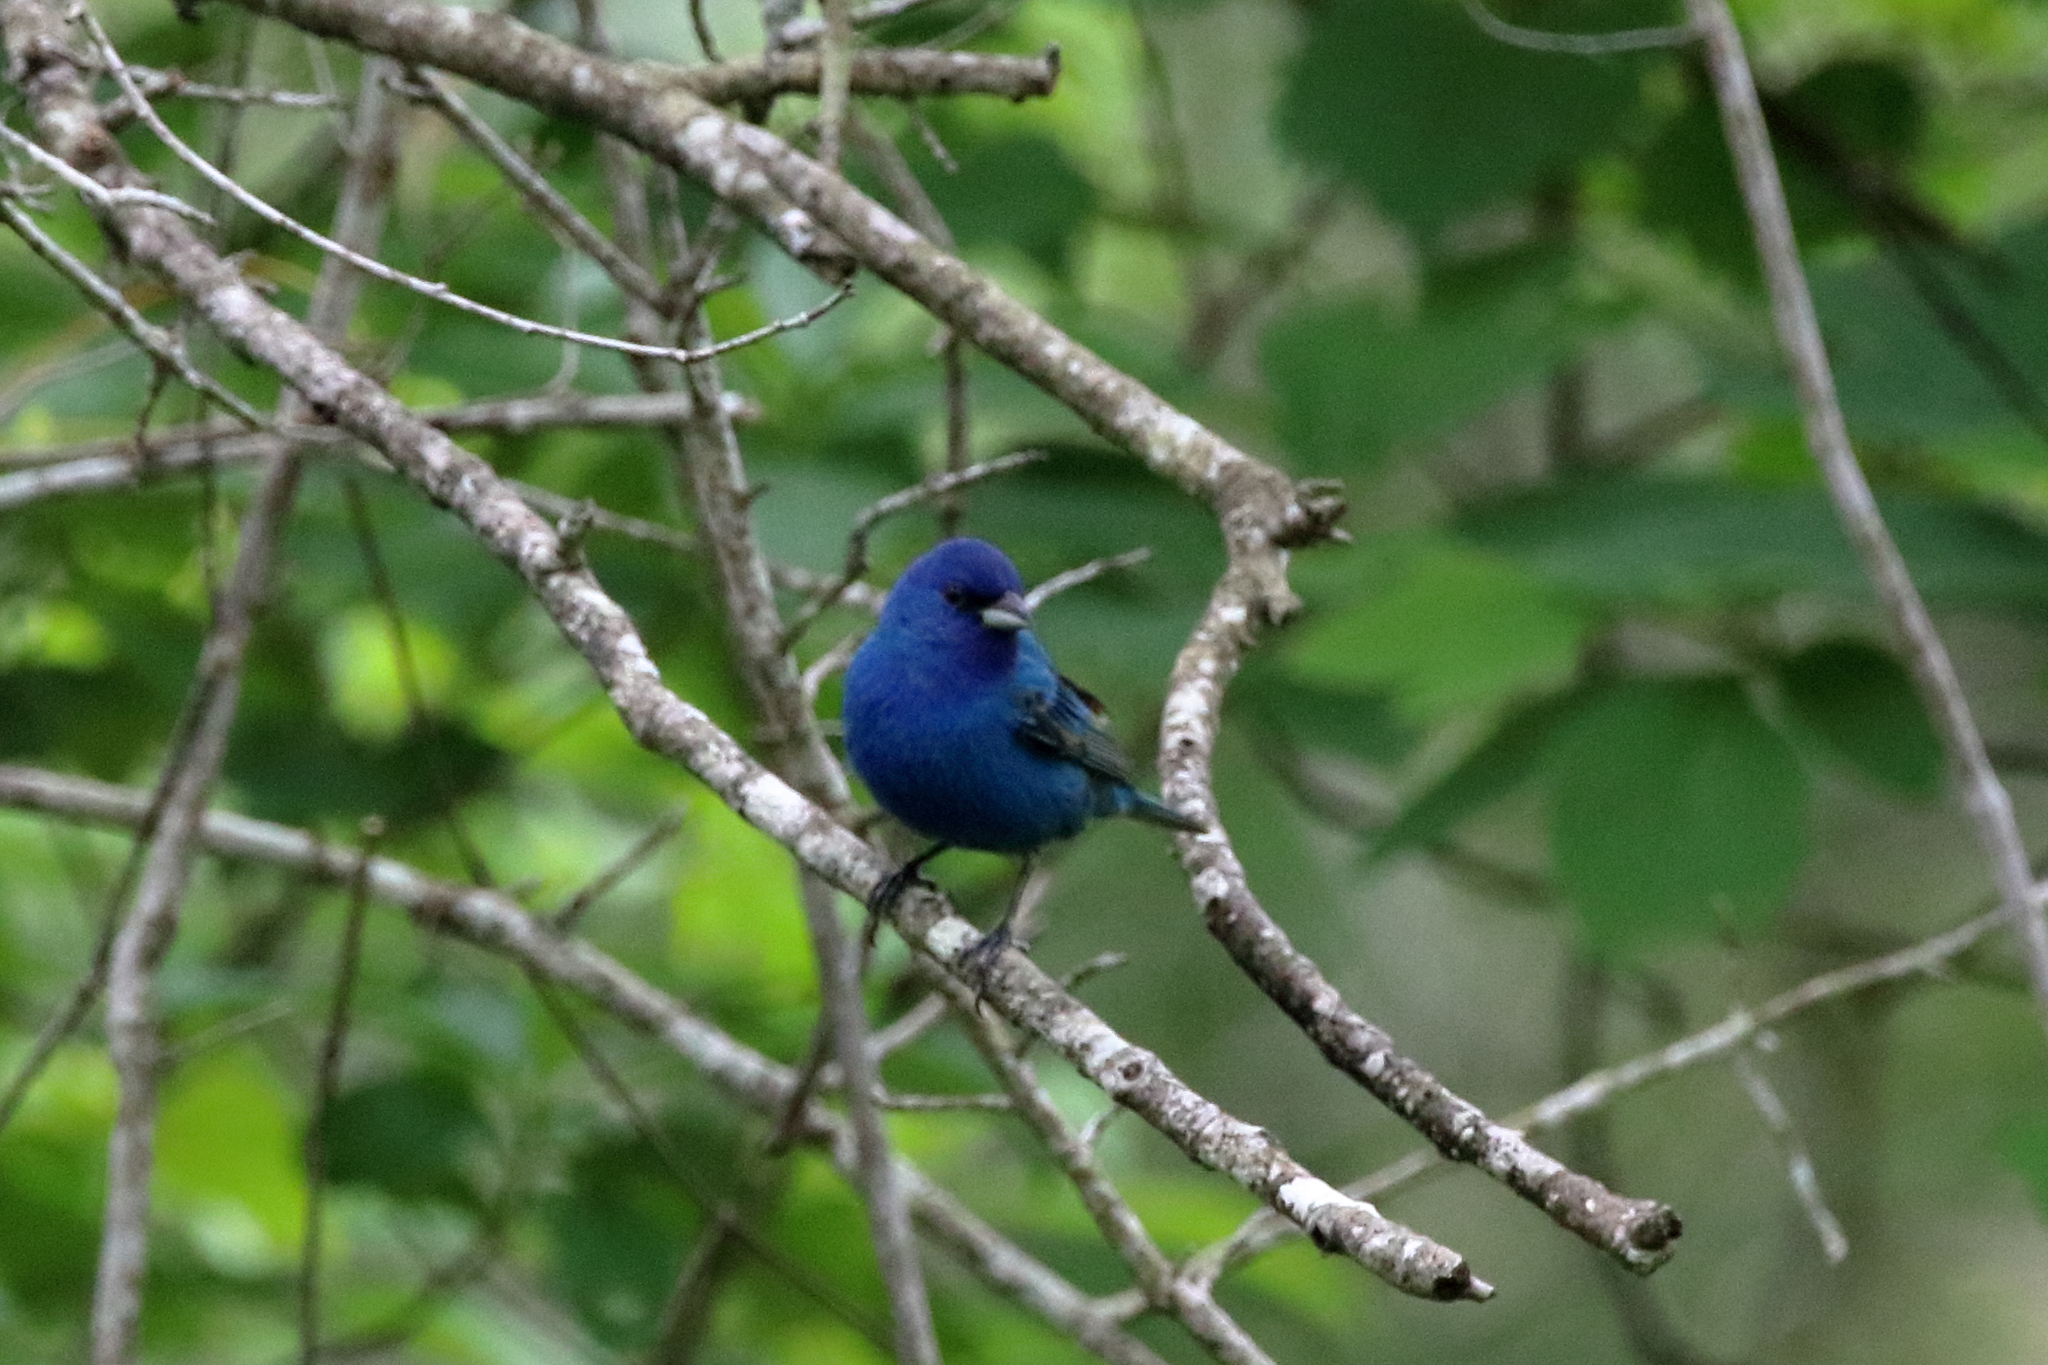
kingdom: Animalia
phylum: Chordata
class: Aves
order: Passeriformes
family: Cardinalidae
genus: Passerina
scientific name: Passerina cyanea
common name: Indigo bunting
